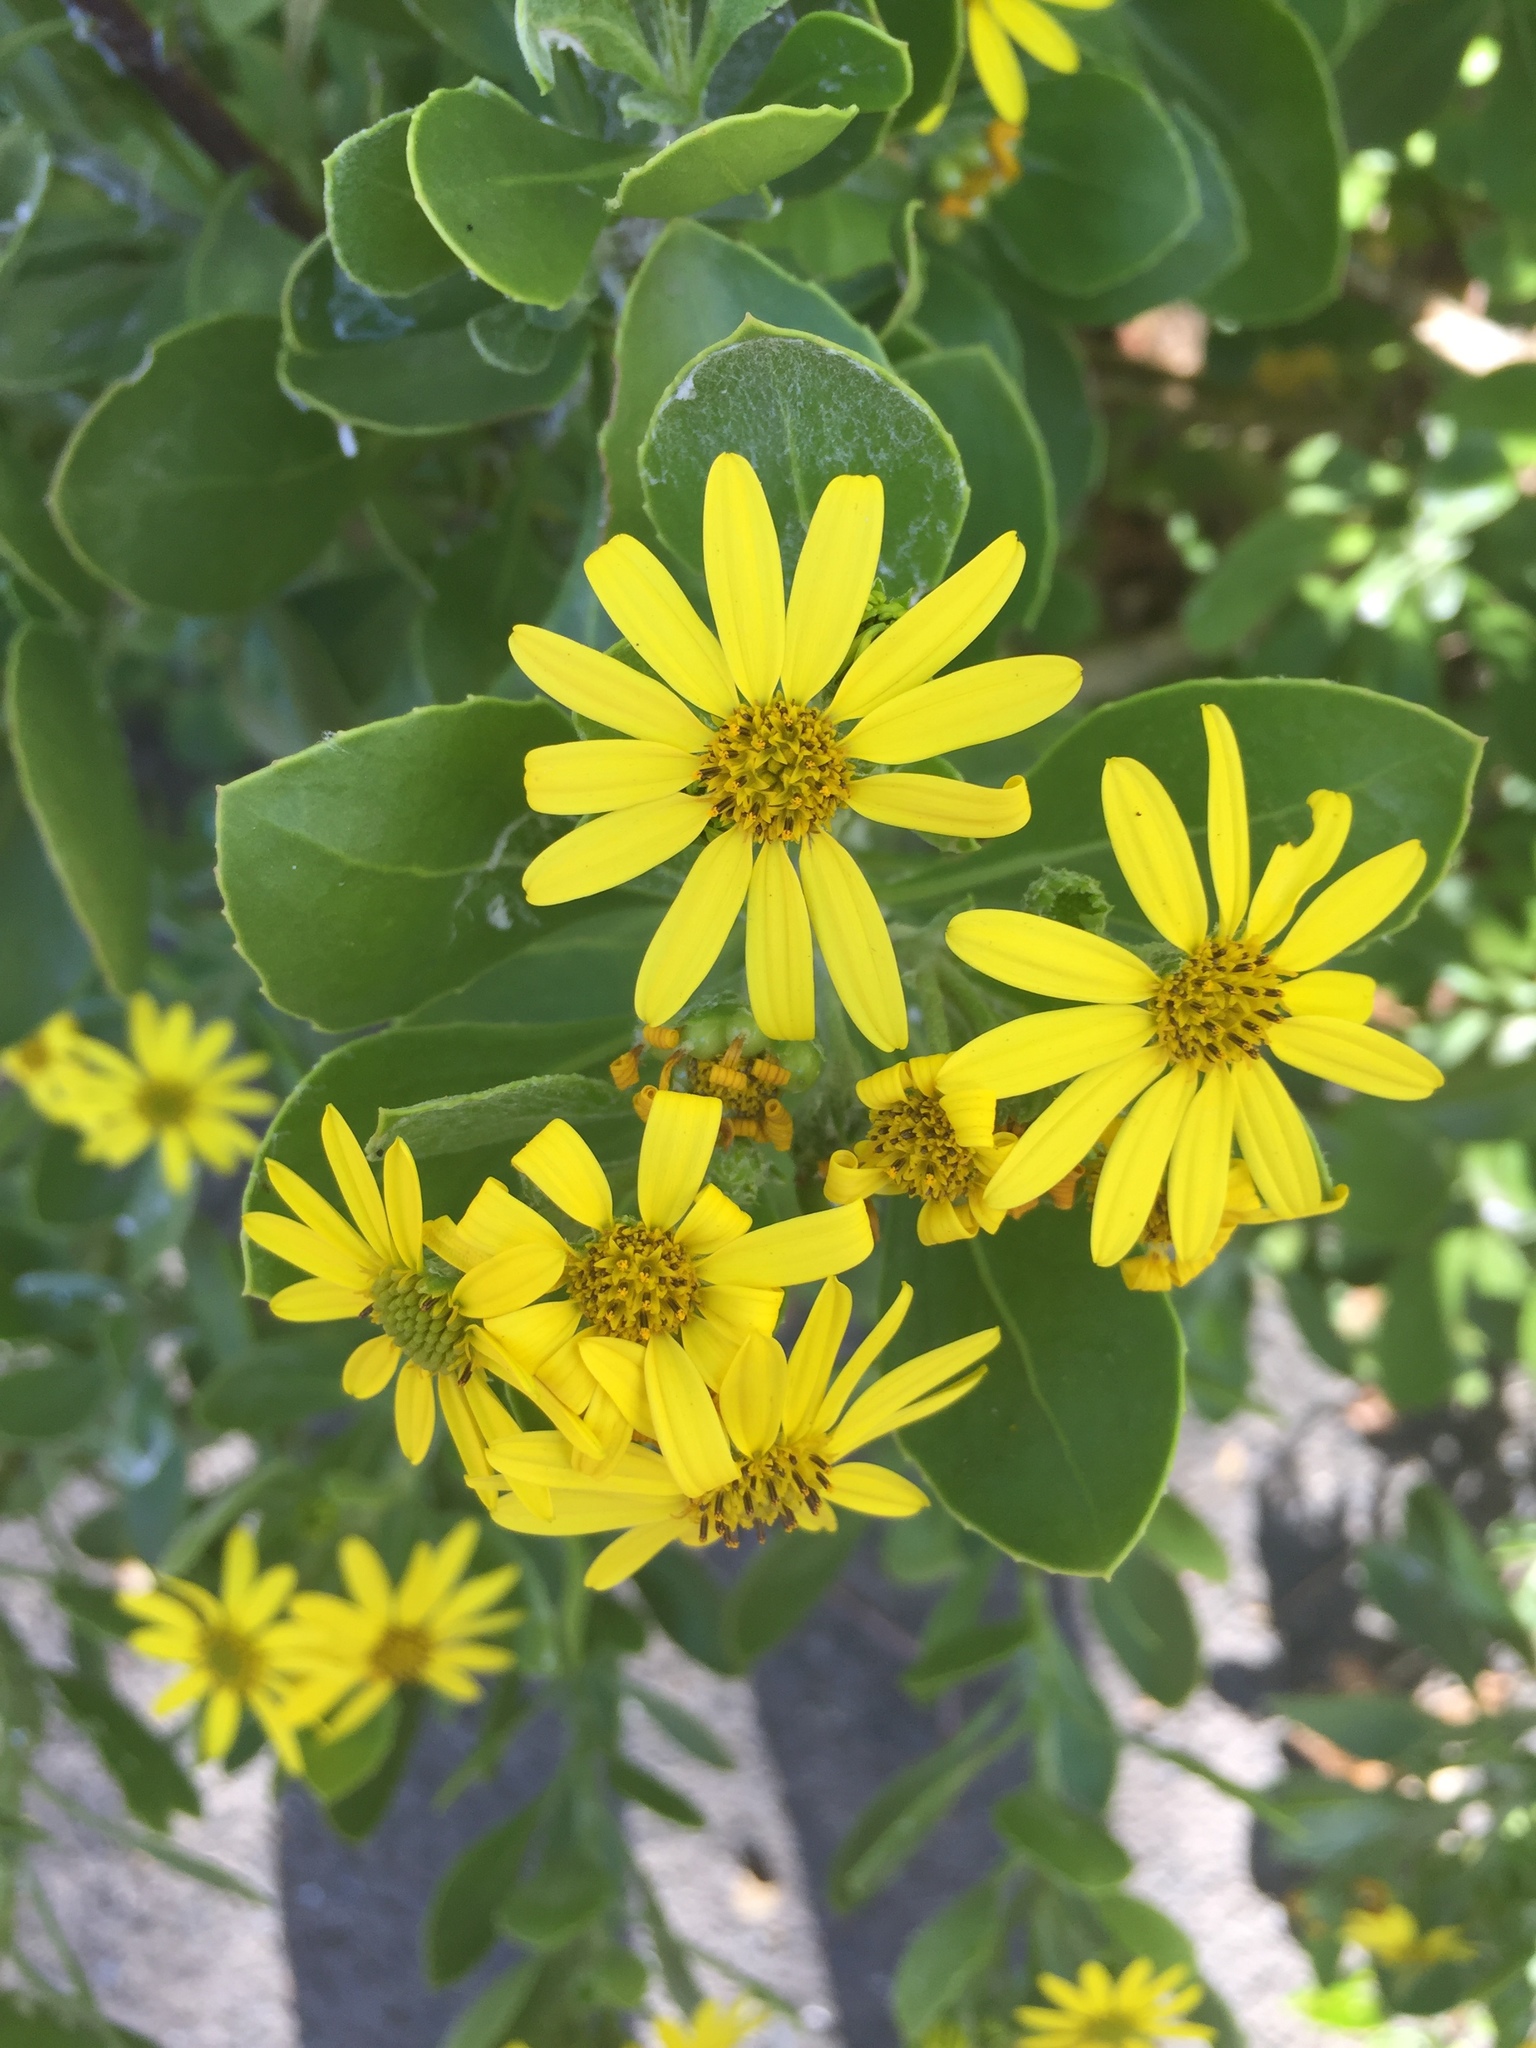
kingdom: Plantae
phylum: Tracheophyta
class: Magnoliopsida
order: Asterales
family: Asteraceae
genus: Osteospermum
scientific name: Osteospermum moniliferum
